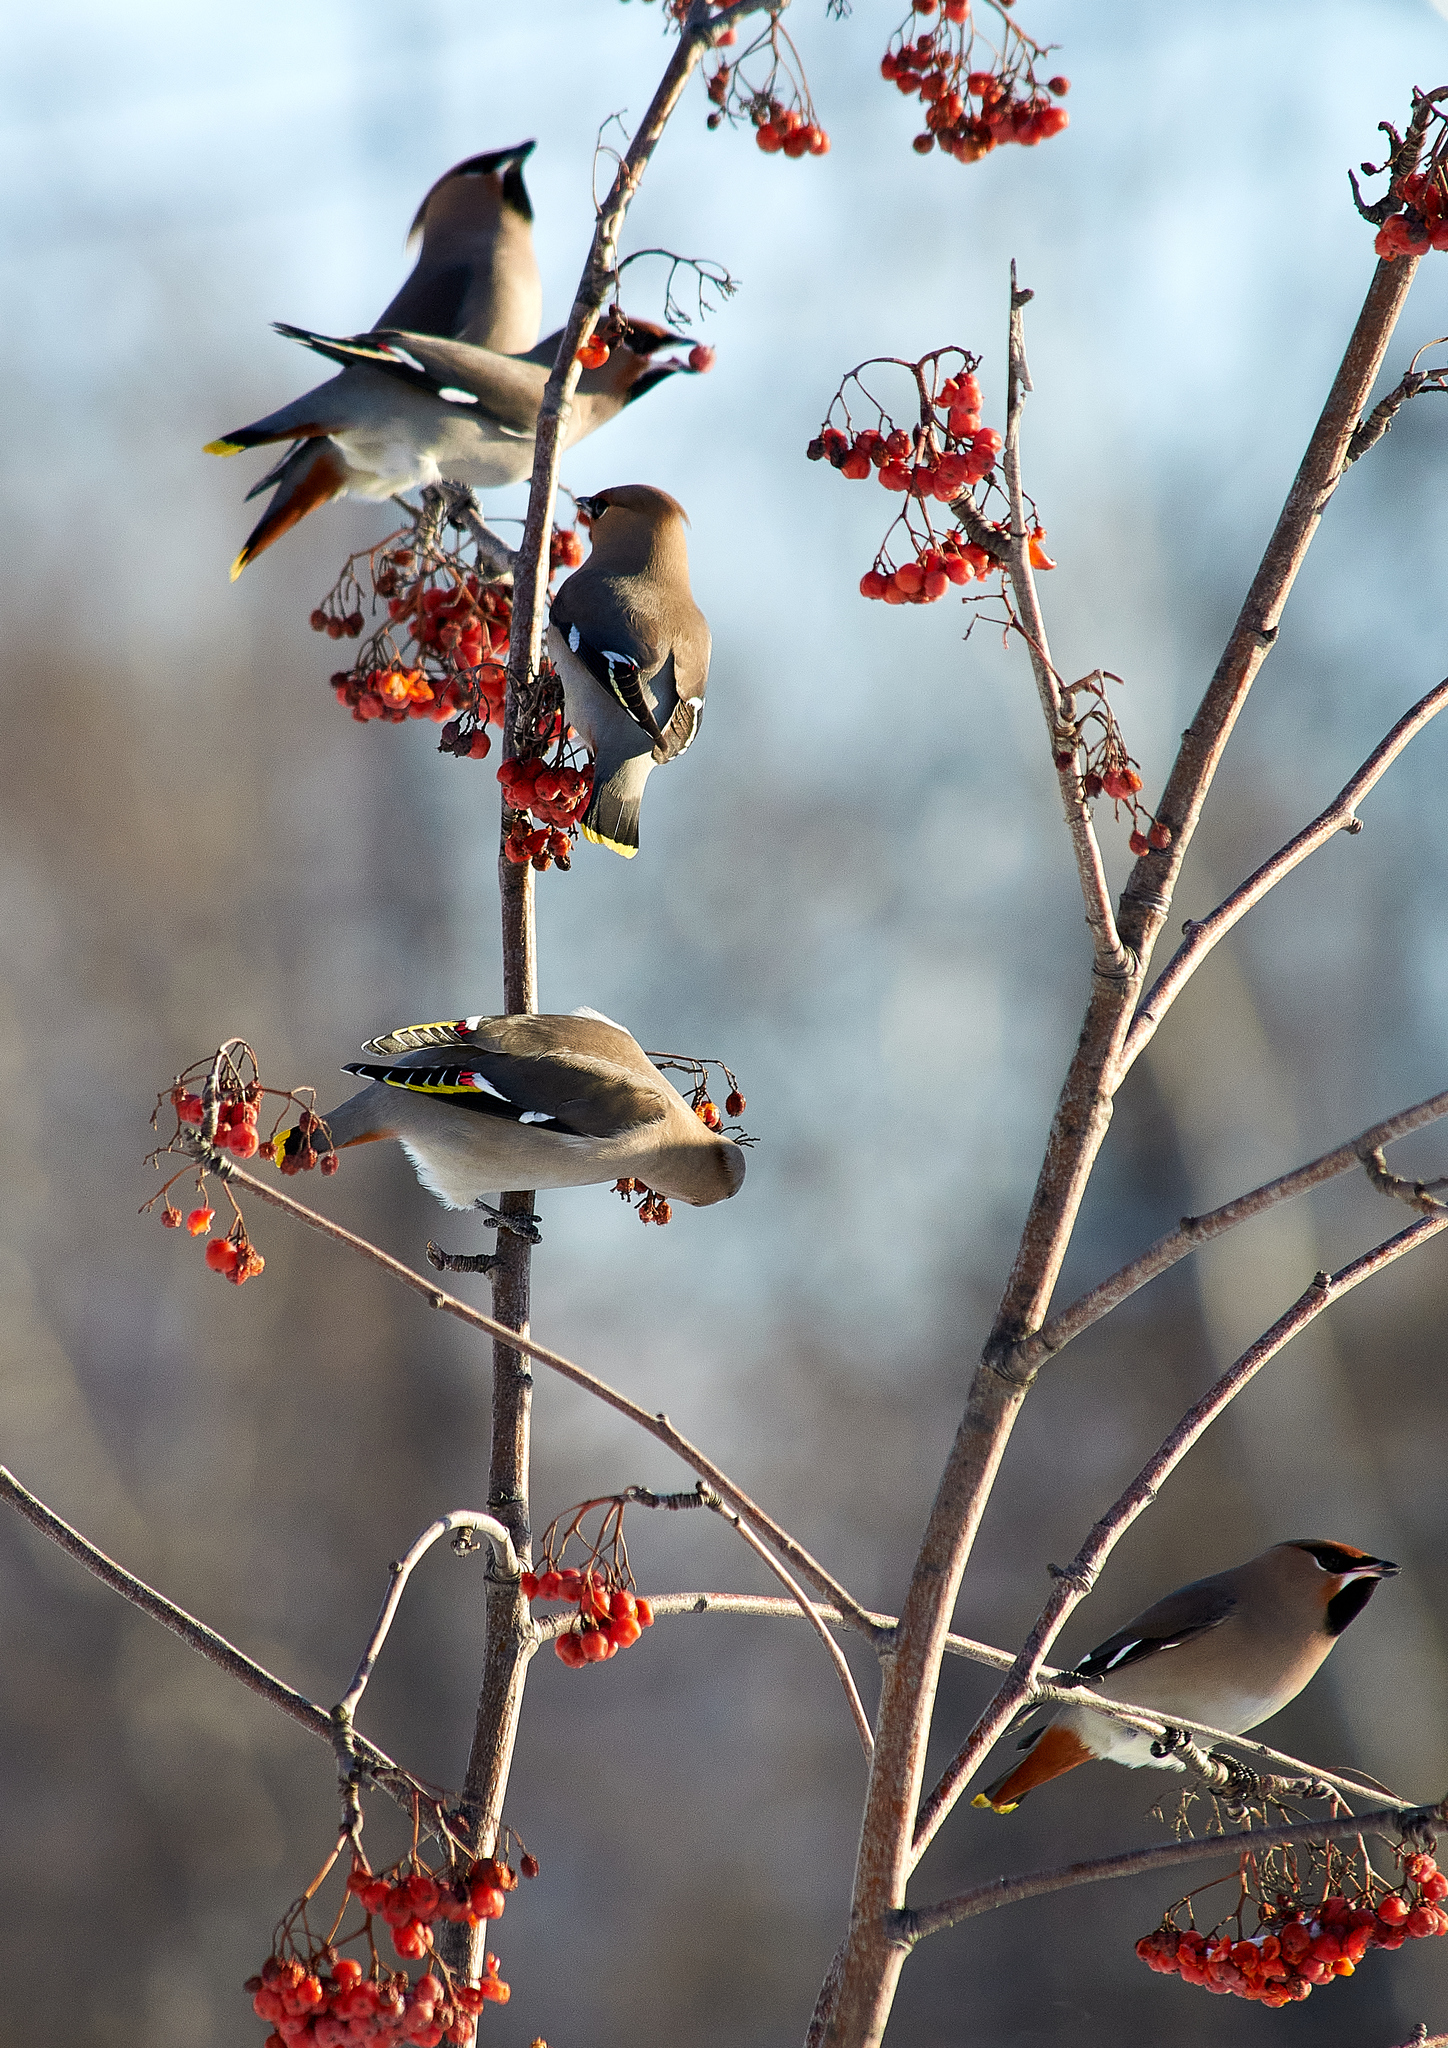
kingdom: Animalia
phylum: Chordata
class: Aves
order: Passeriformes
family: Bombycillidae
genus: Bombycilla
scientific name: Bombycilla garrulus
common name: Bohemian waxwing
